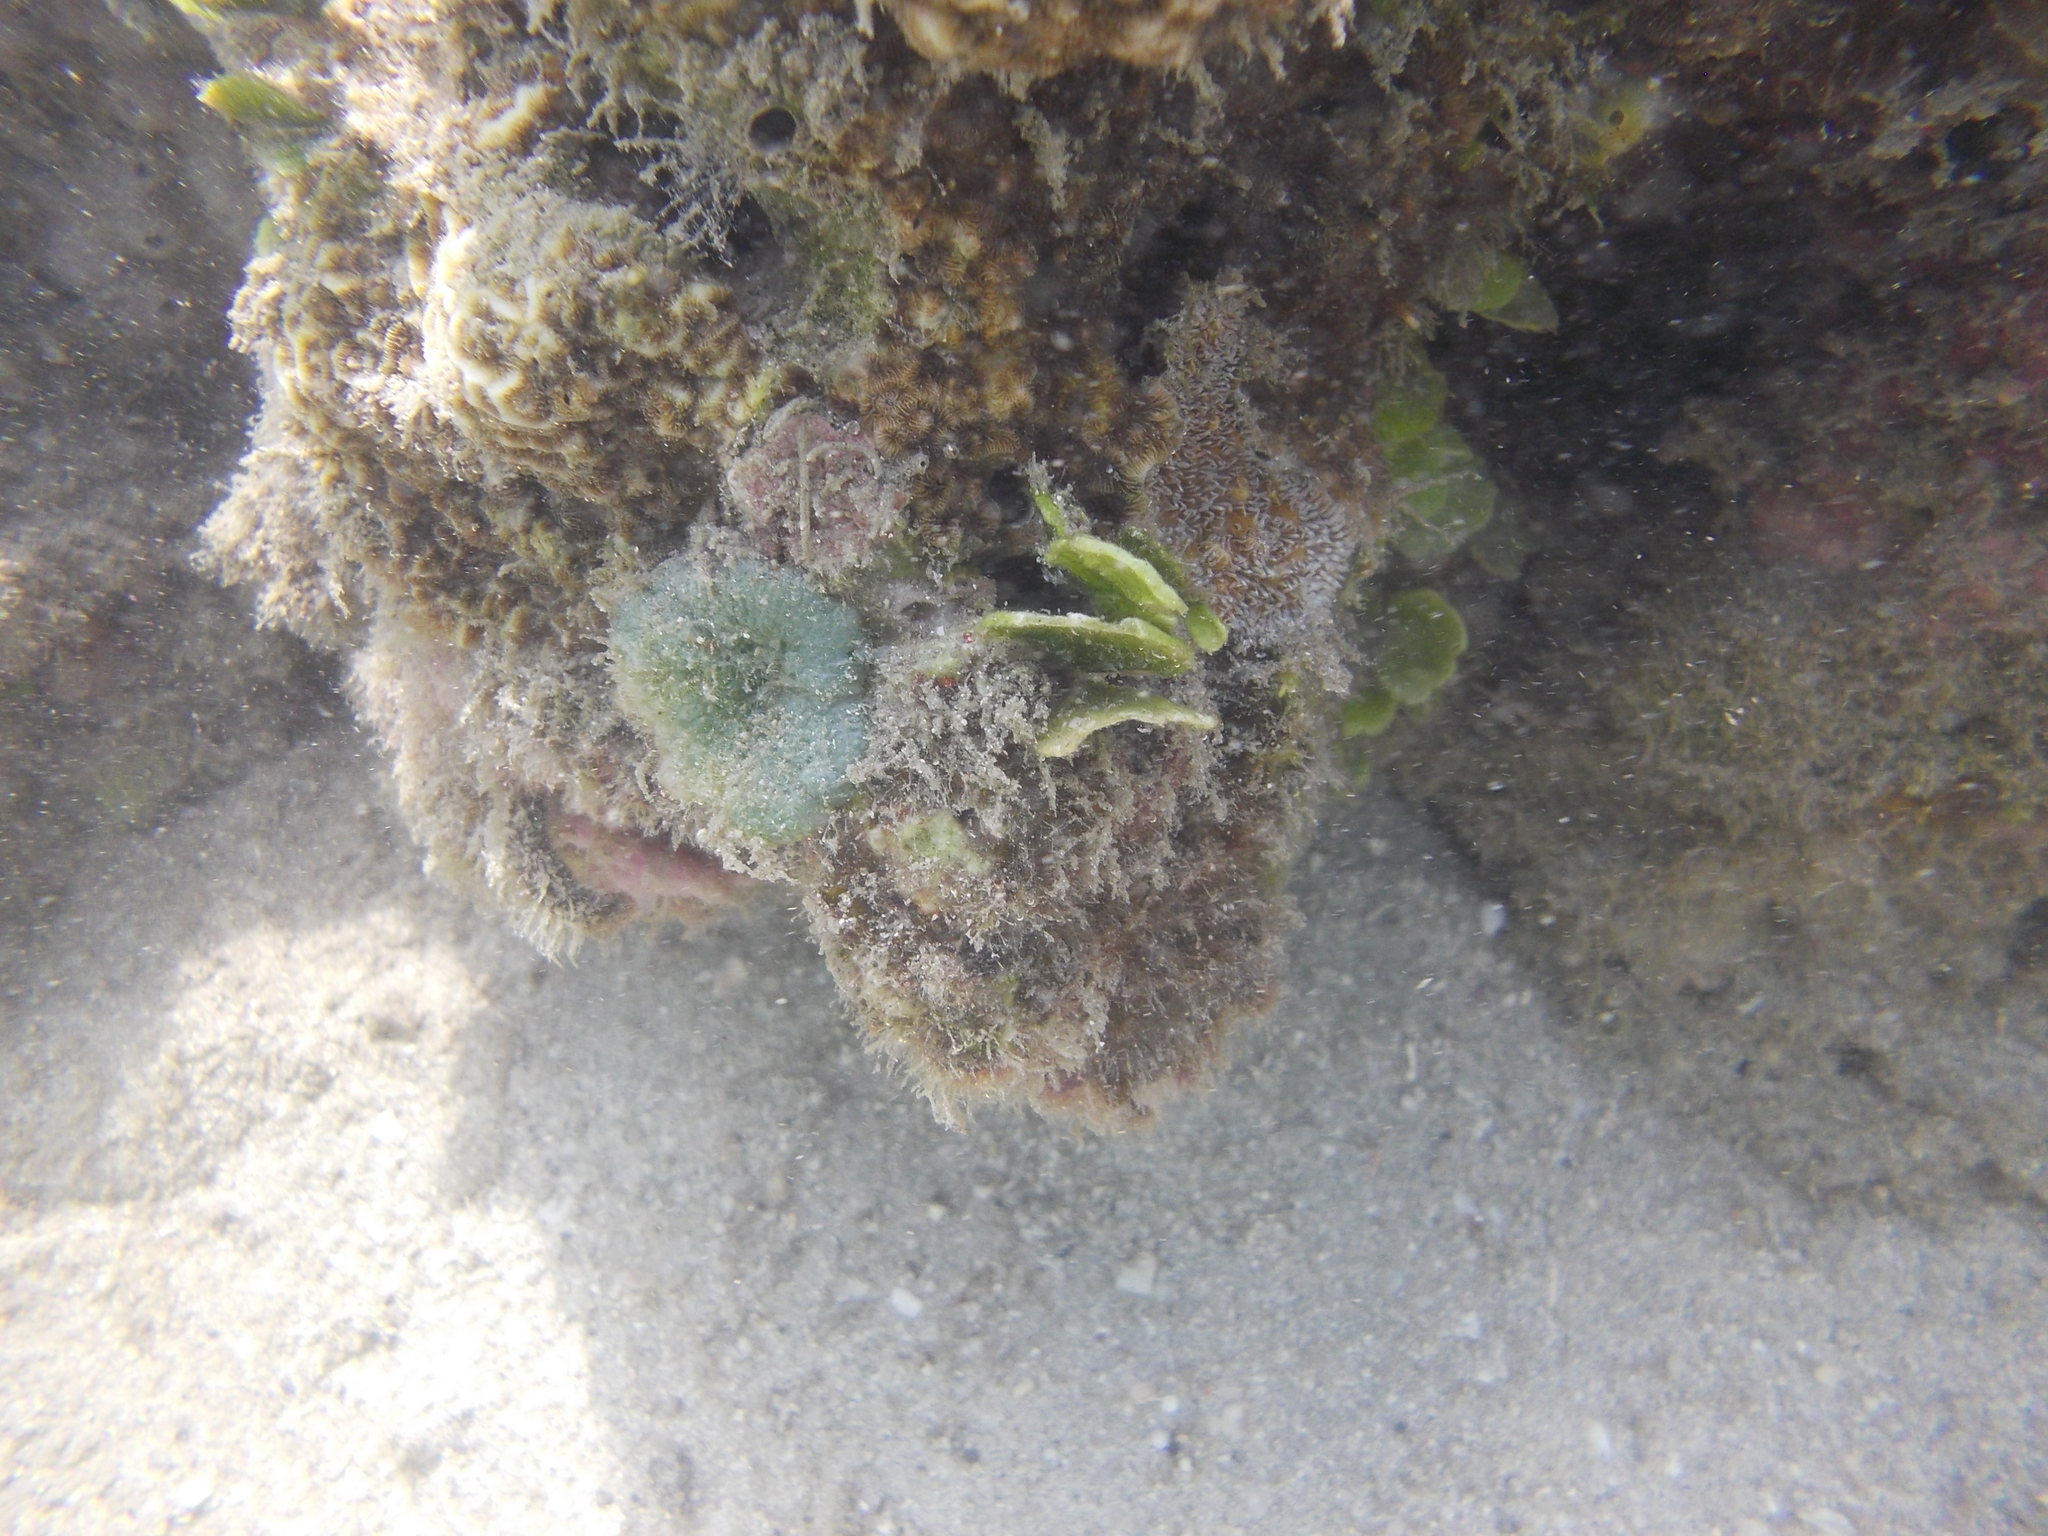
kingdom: Animalia
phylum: Cnidaria
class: Anthozoa
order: Scleractinia
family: Agariciidae
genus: Pavona
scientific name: Pavona varians
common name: Leaf coral
